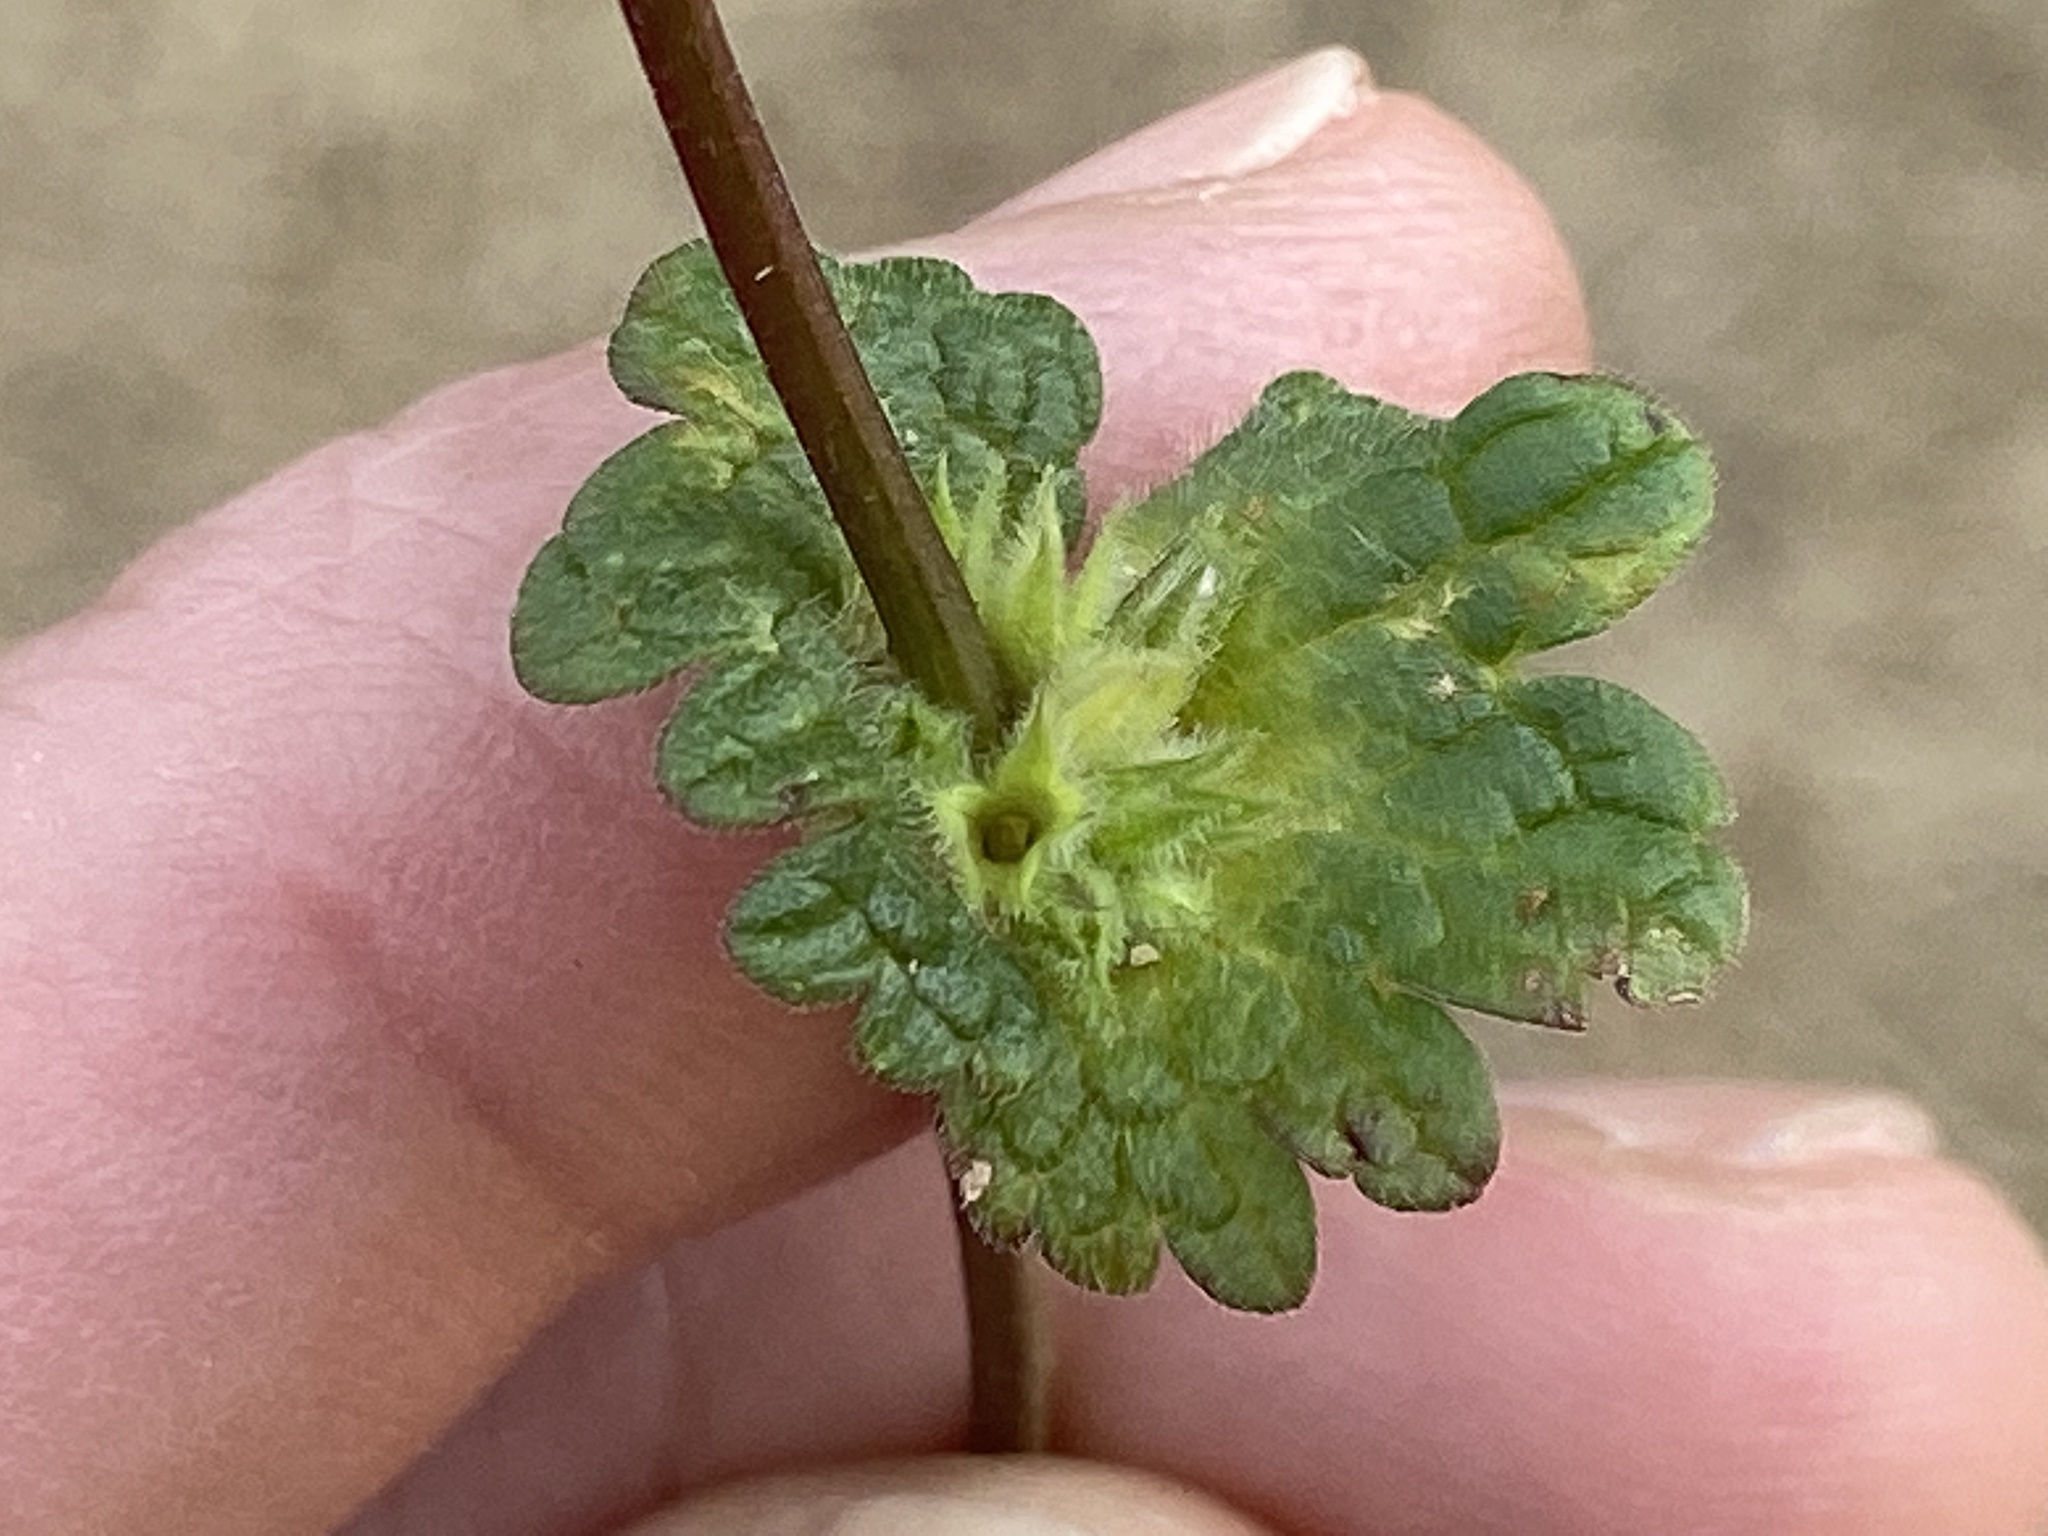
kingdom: Plantae
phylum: Tracheophyta
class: Magnoliopsida
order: Lamiales
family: Lamiaceae
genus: Lamium
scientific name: Lamium amplexicaule
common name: Henbit dead-nettle
